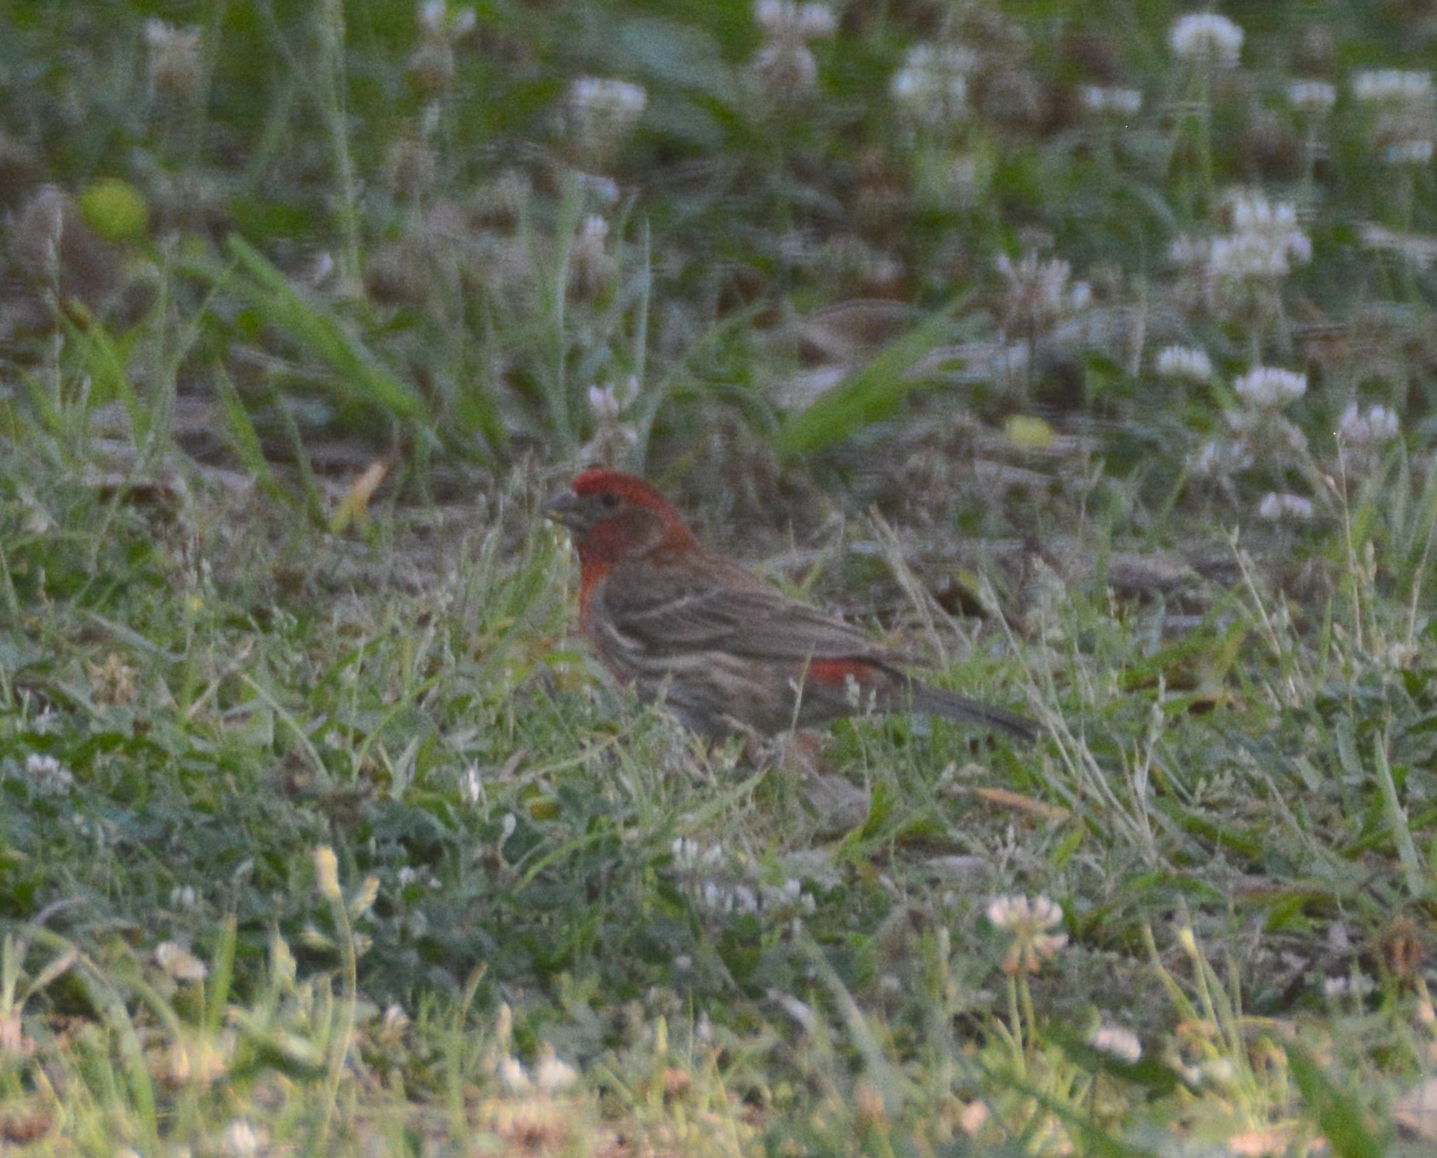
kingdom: Animalia
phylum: Chordata
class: Aves
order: Passeriformes
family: Fringillidae
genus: Haemorhous
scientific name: Haemorhous mexicanus
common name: House finch
